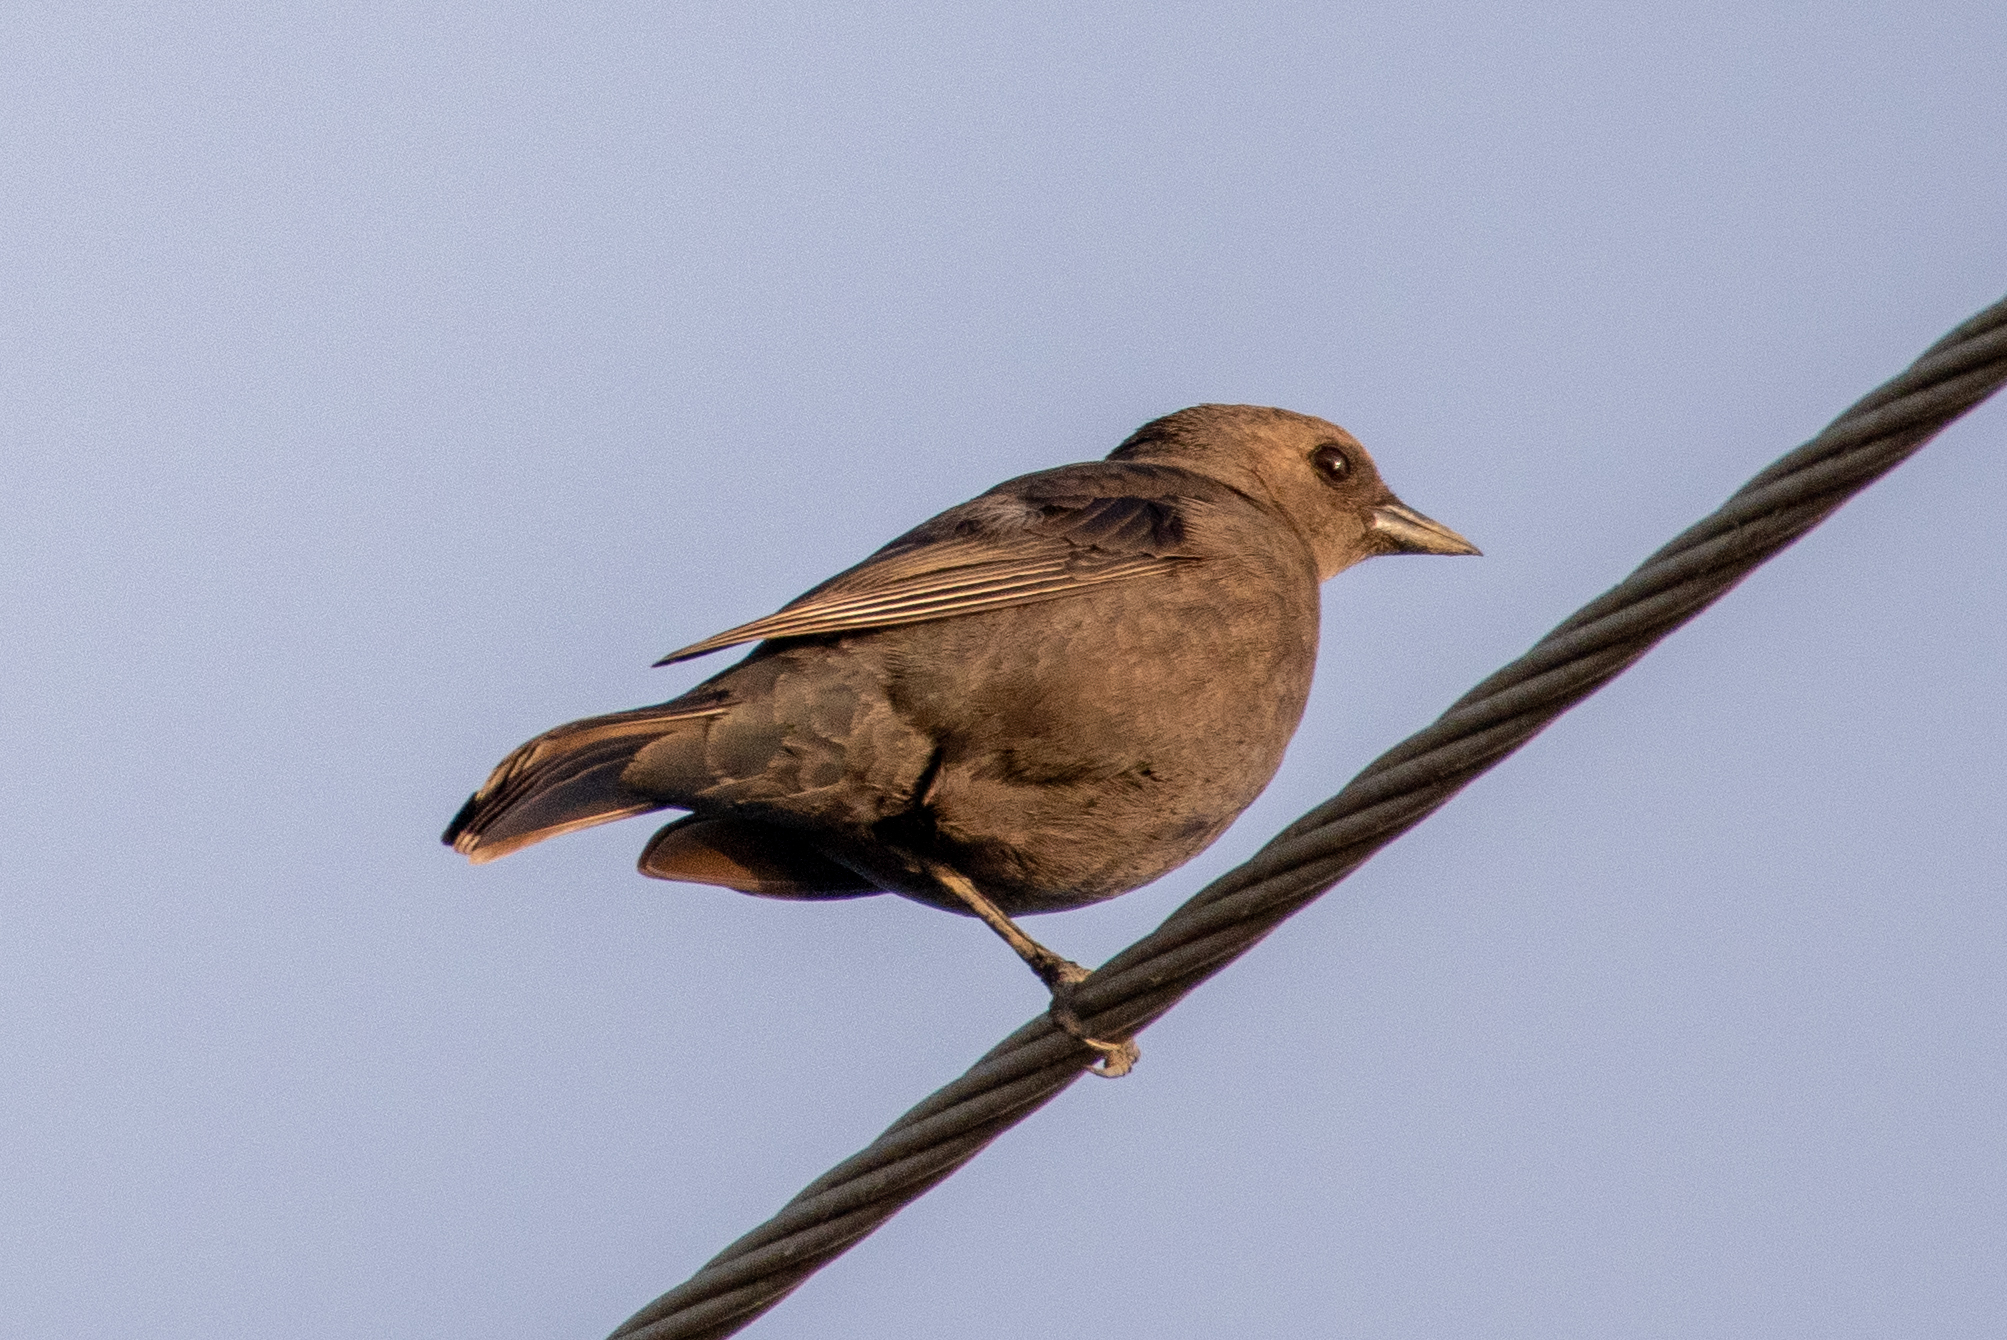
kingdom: Animalia
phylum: Chordata
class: Aves
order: Passeriformes
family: Icteridae
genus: Molothrus
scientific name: Molothrus ater
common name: Brown-headed cowbird
